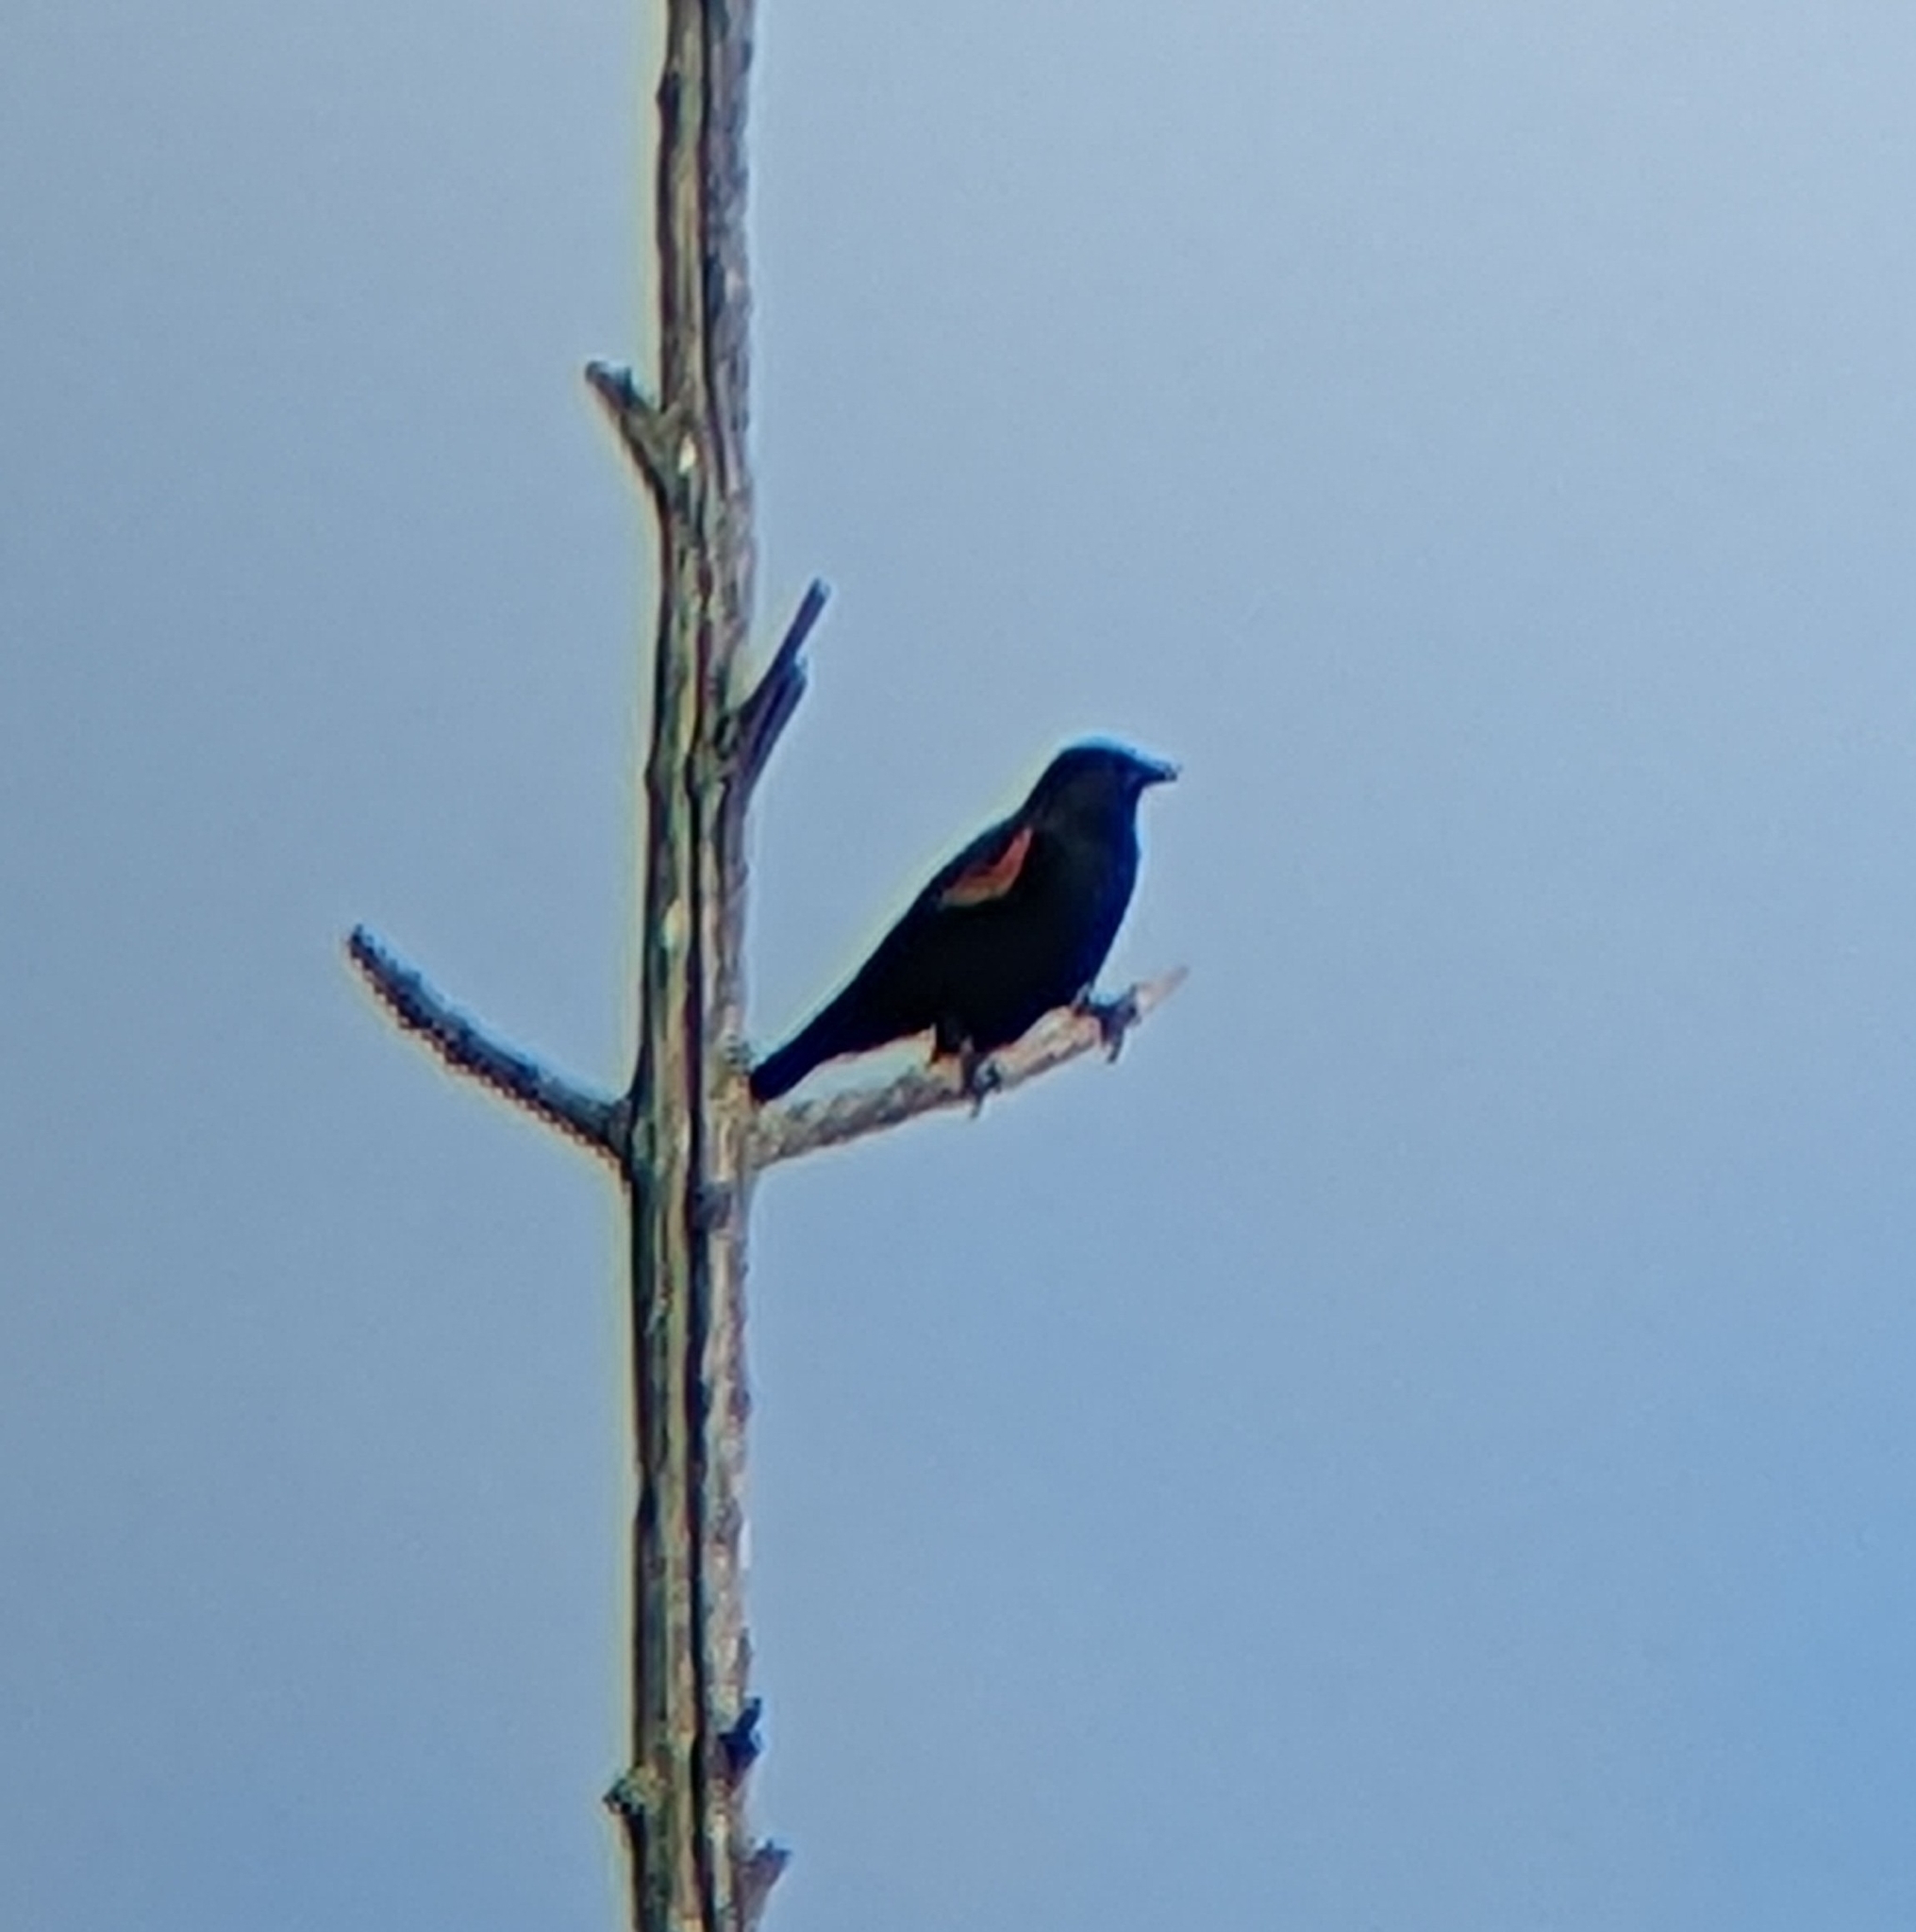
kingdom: Animalia
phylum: Chordata
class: Aves
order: Passeriformes
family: Icteridae
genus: Agelaius
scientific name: Agelaius phoeniceus
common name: Red-winged blackbird
